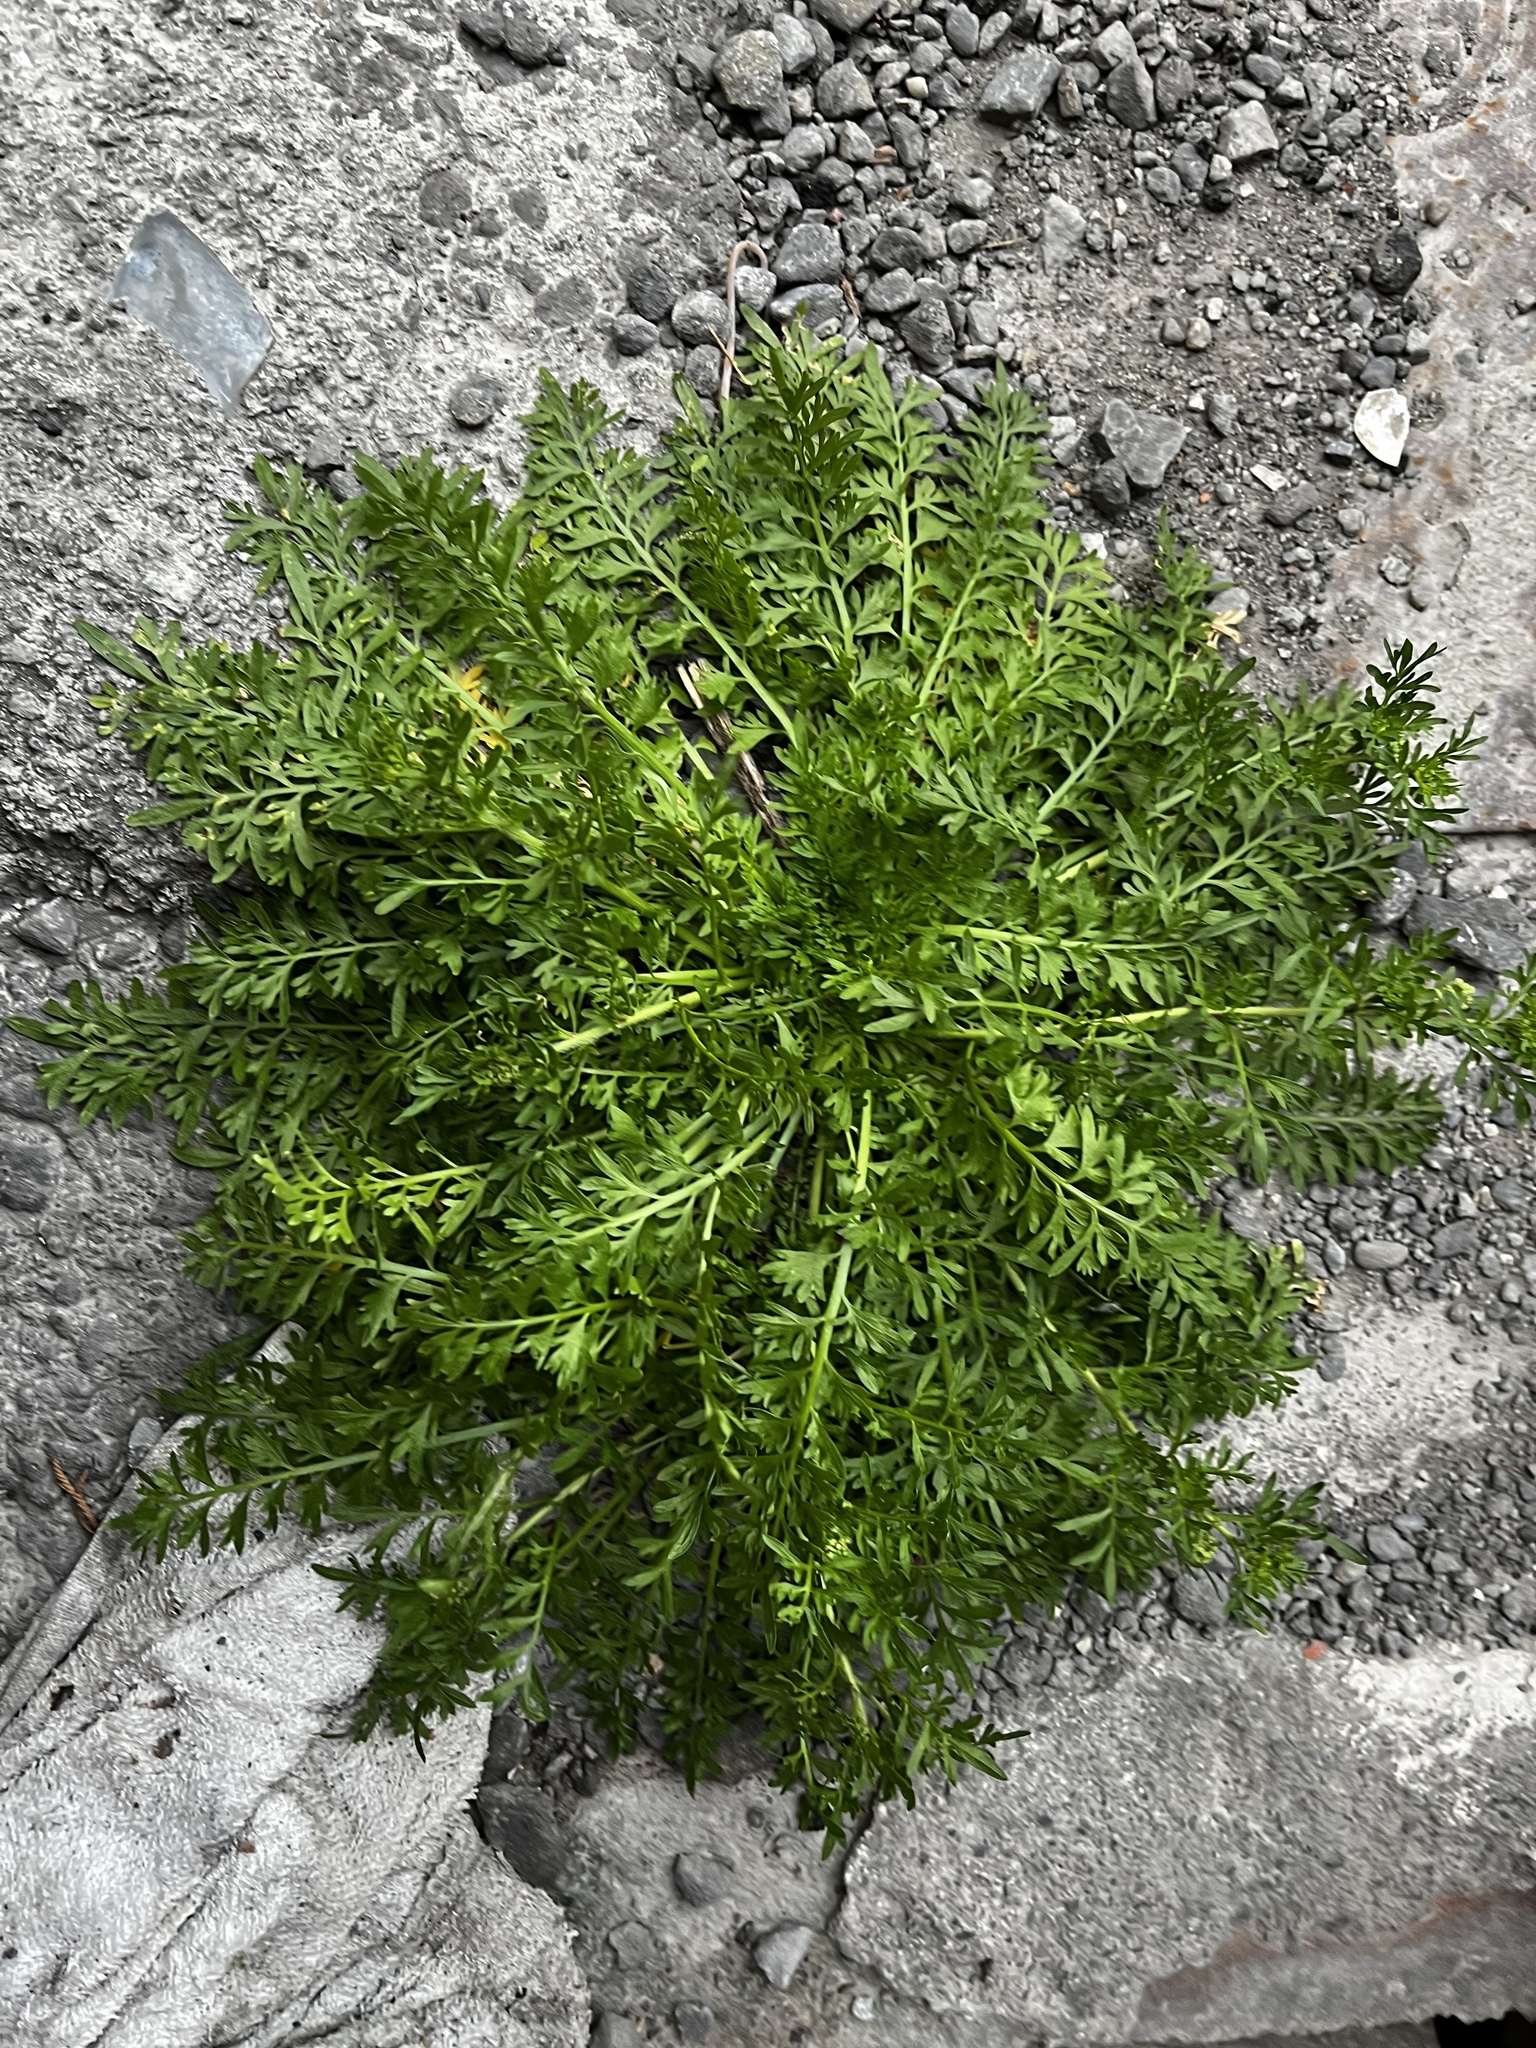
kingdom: Plantae
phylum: Tracheophyta
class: Magnoliopsida
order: Brassicales
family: Brassicaceae
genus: Lepidium
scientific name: Lepidium didymum
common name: Lesser swinecress
